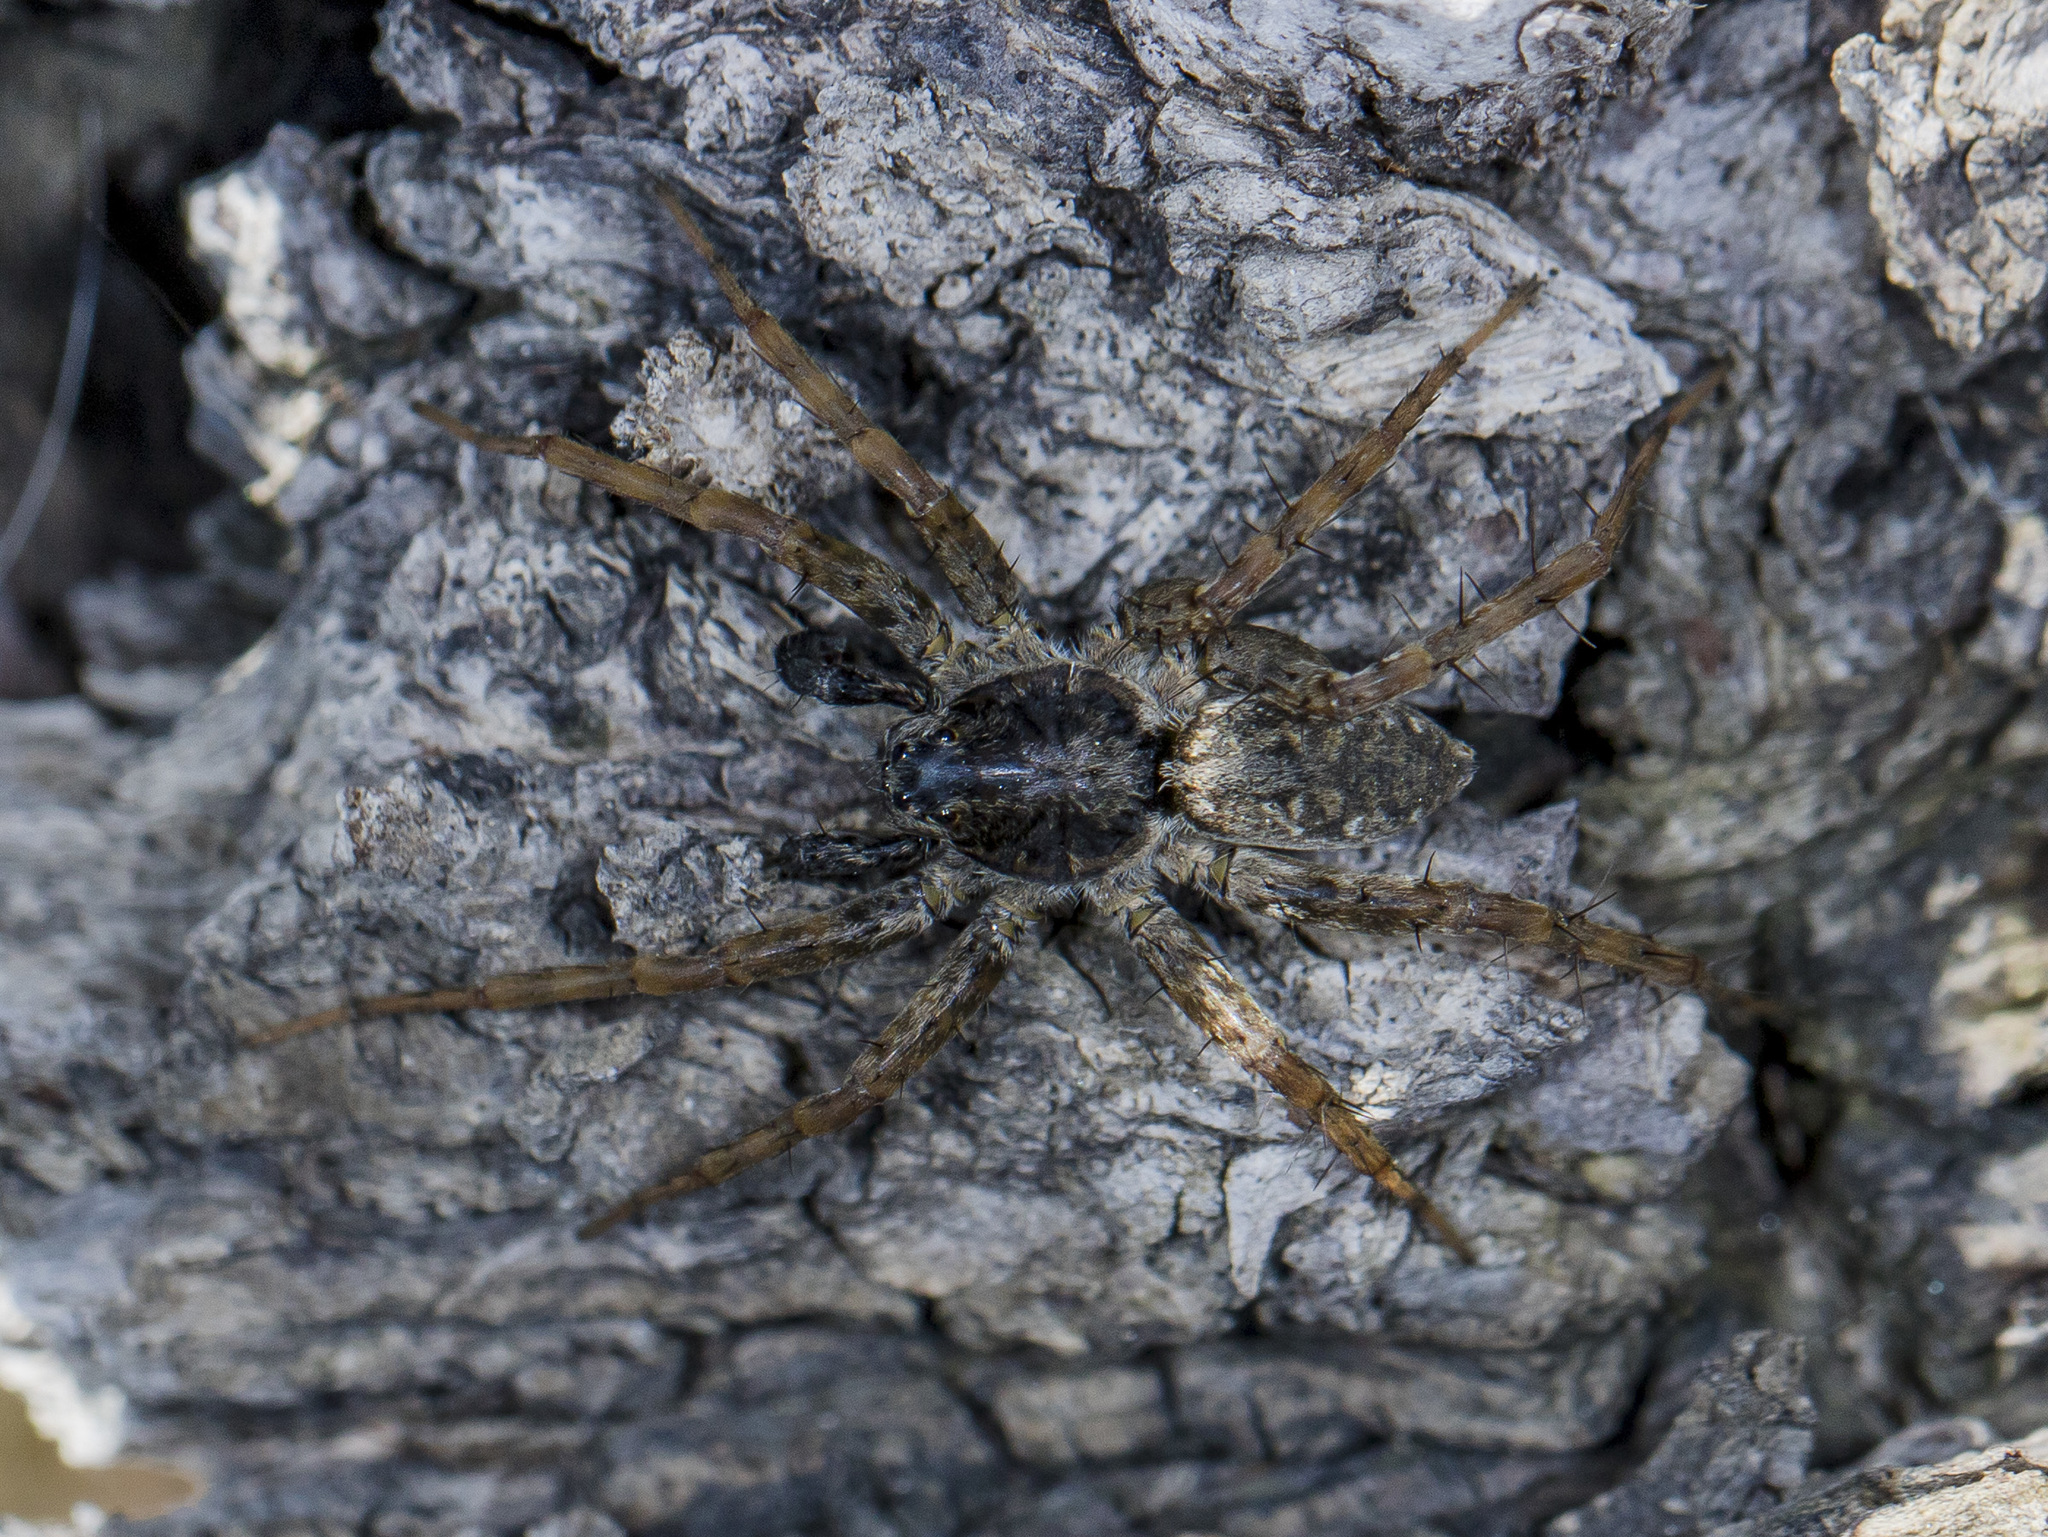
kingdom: Animalia
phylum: Arthropoda
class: Arachnida
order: Araneae
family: Lycosidae
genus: Pardosa
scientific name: Pardosa nebulosa
